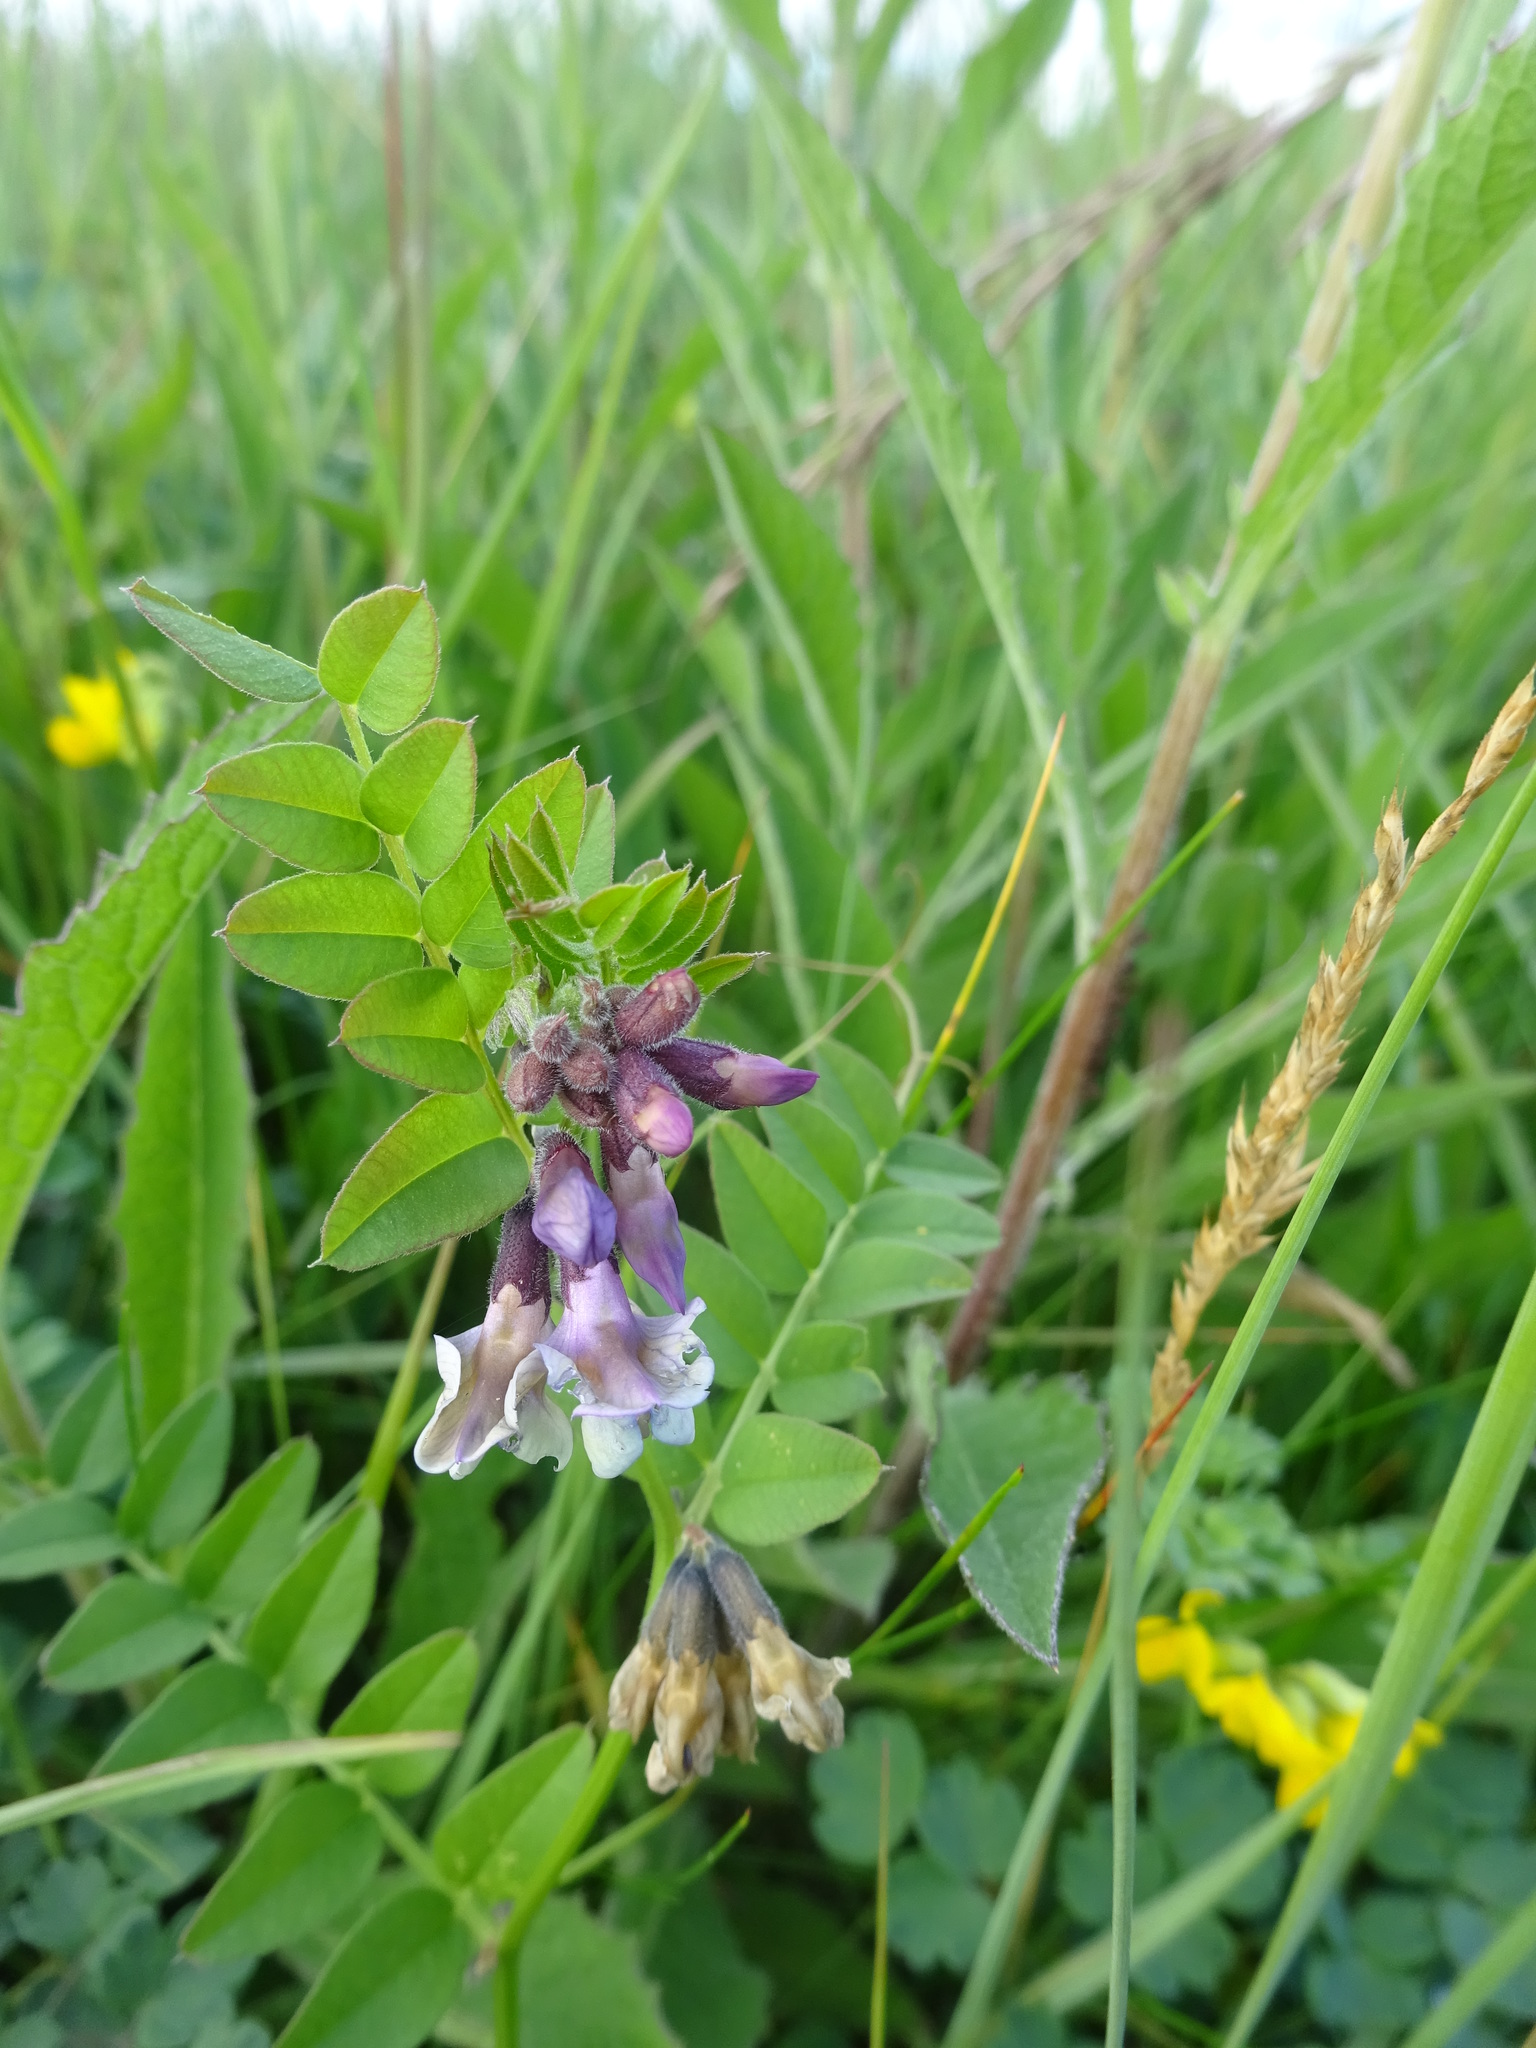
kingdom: Plantae
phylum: Tracheophyta
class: Magnoliopsida
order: Fabales
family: Fabaceae
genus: Vicia
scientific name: Vicia sepium
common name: Bush vetch
